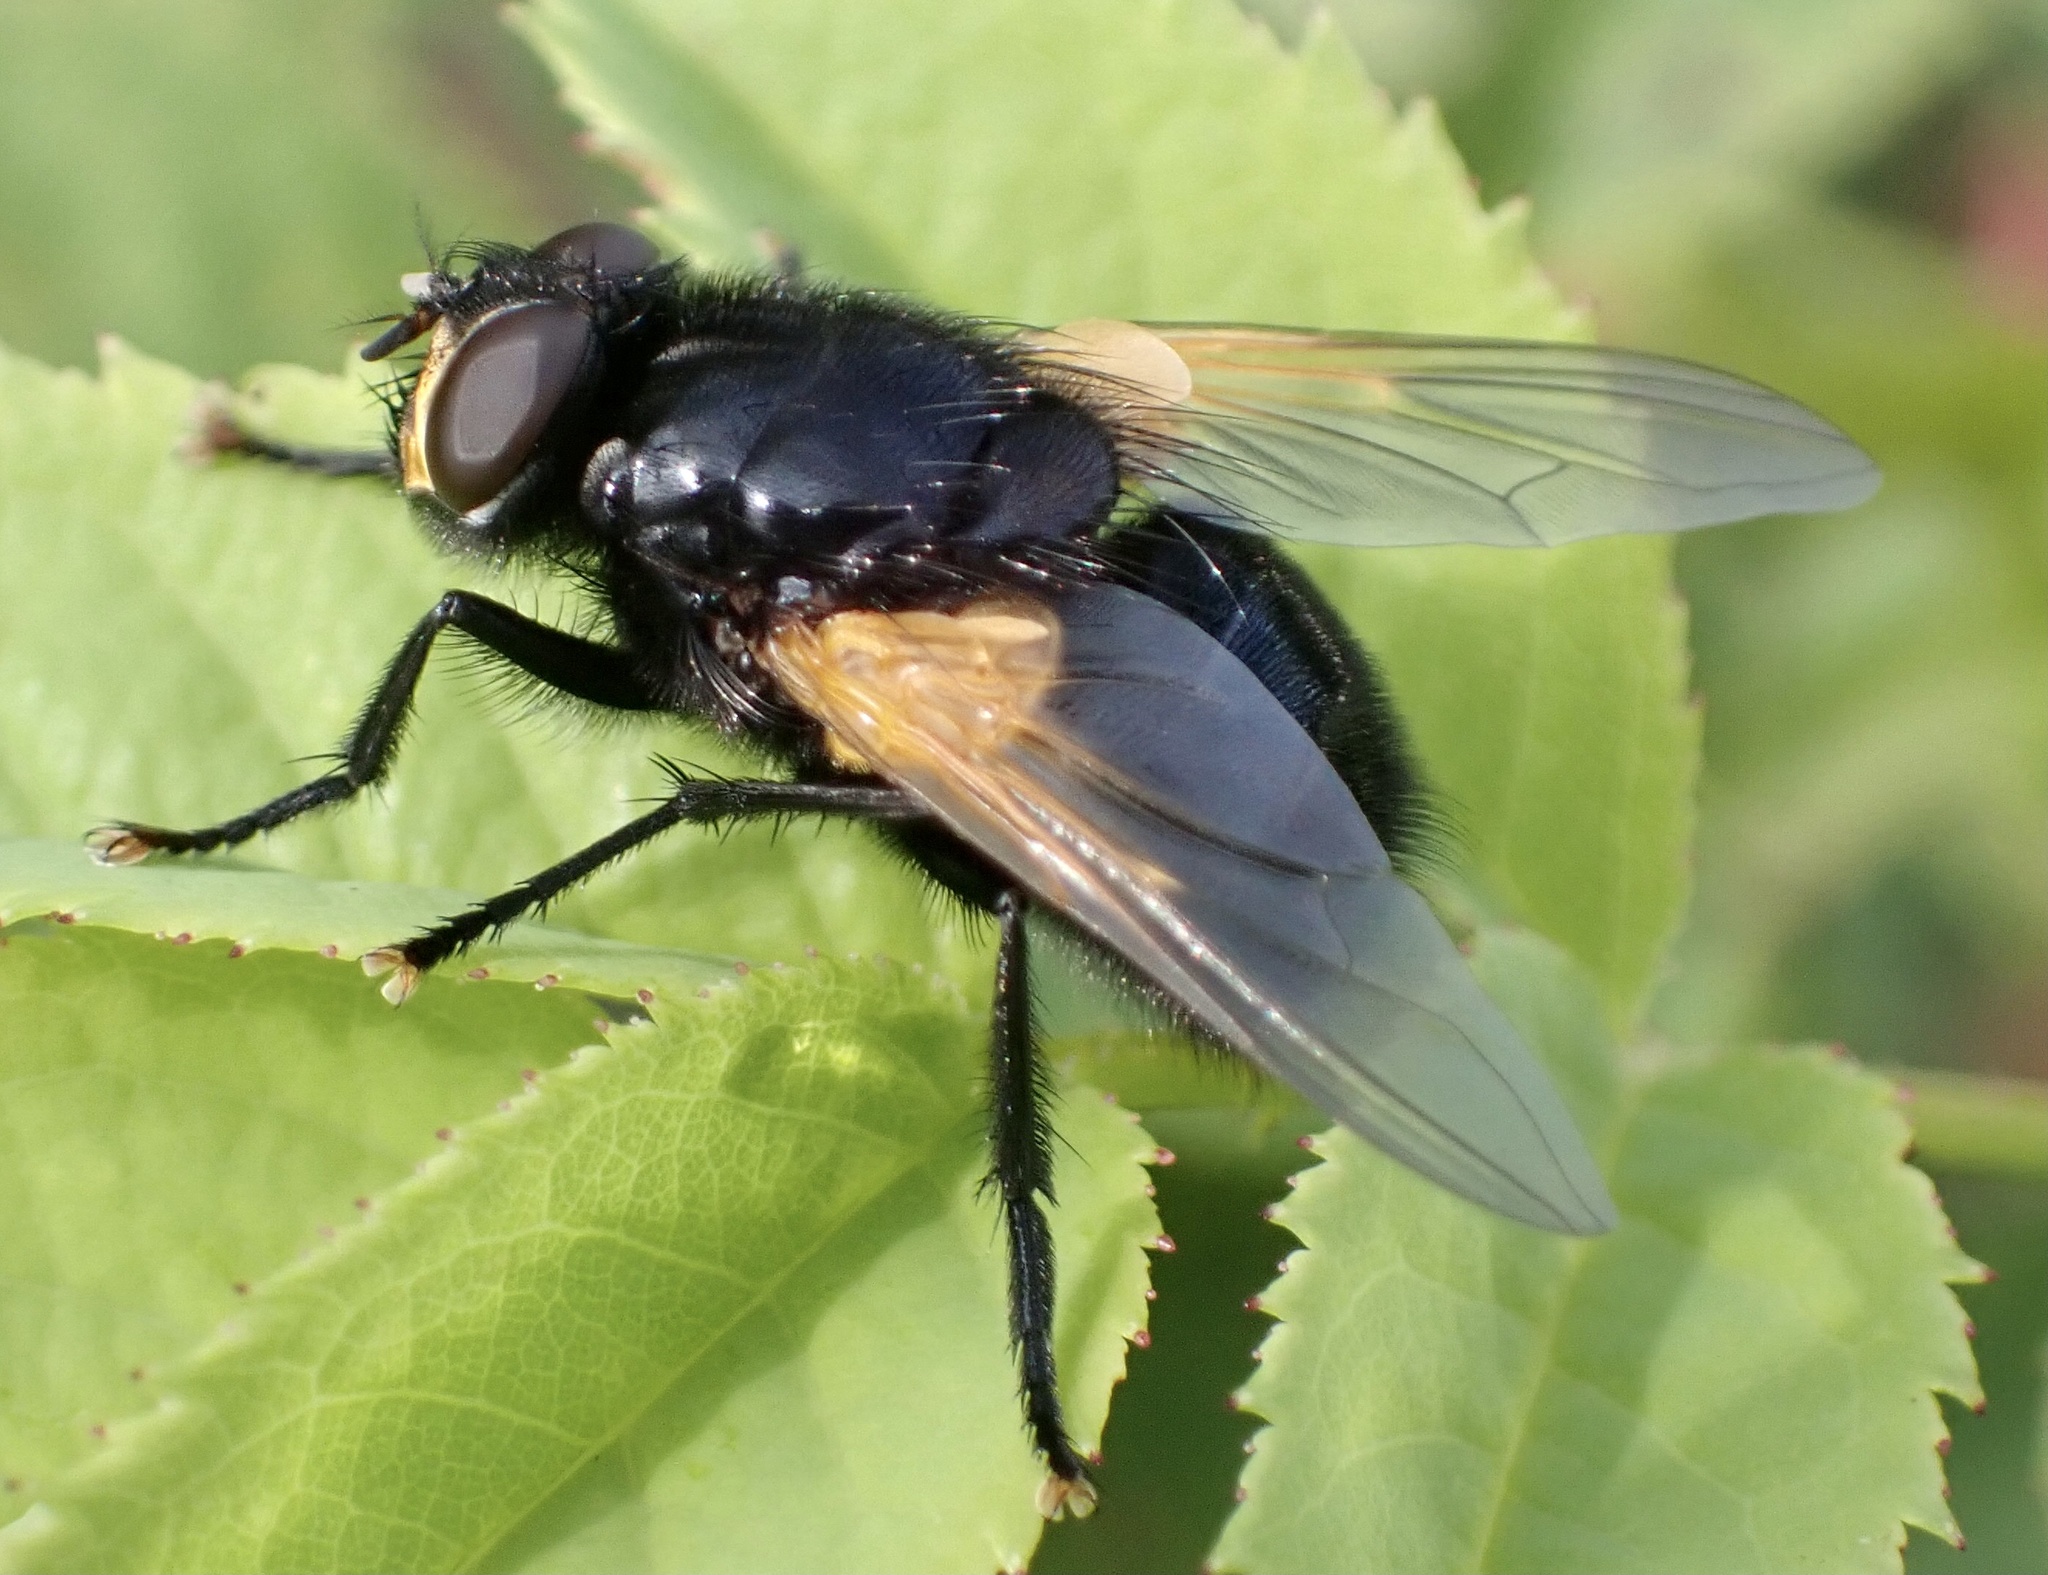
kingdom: Animalia
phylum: Arthropoda
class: Insecta
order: Diptera
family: Muscidae
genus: Mesembrina
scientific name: Mesembrina meridiana
